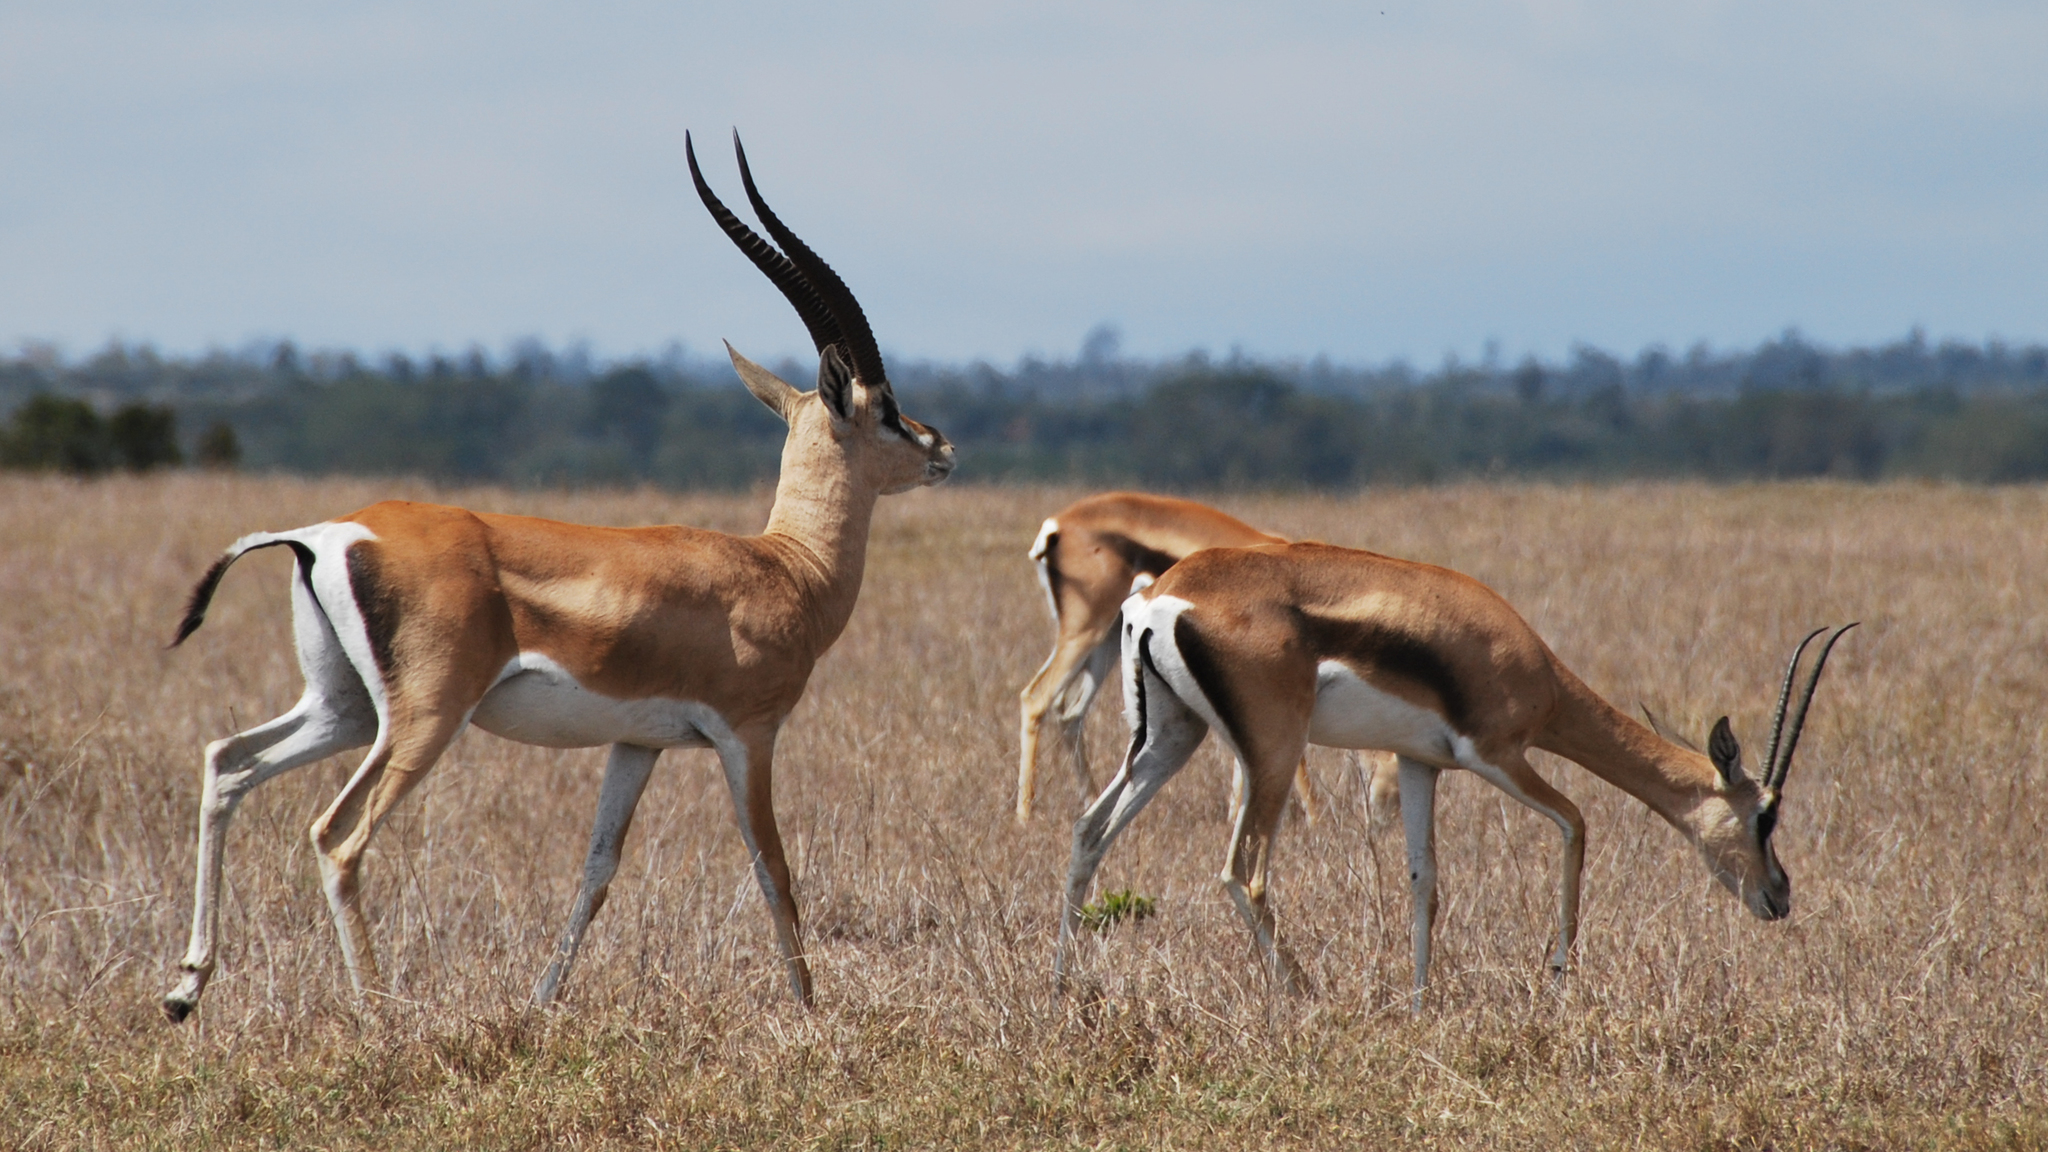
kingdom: Animalia
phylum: Chordata
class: Mammalia
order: Artiodactyla
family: Bovidae
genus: Nanger
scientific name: Nanger granti
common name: Grant's gazelle
